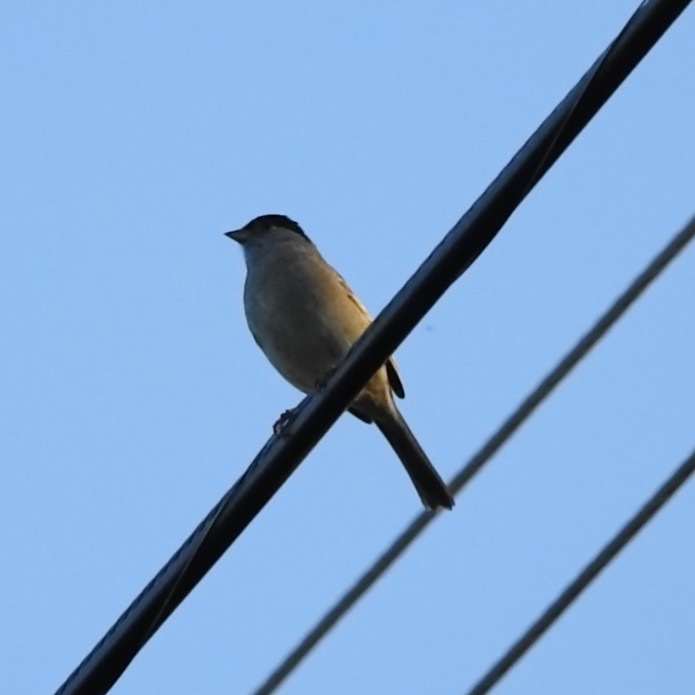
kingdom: Animalia
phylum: Chordata
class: Aves
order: Passeriformes
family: Passerellidae
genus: Zonotrichia
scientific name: Zonotrichia atricapilla
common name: Golden-crowned sparrow
